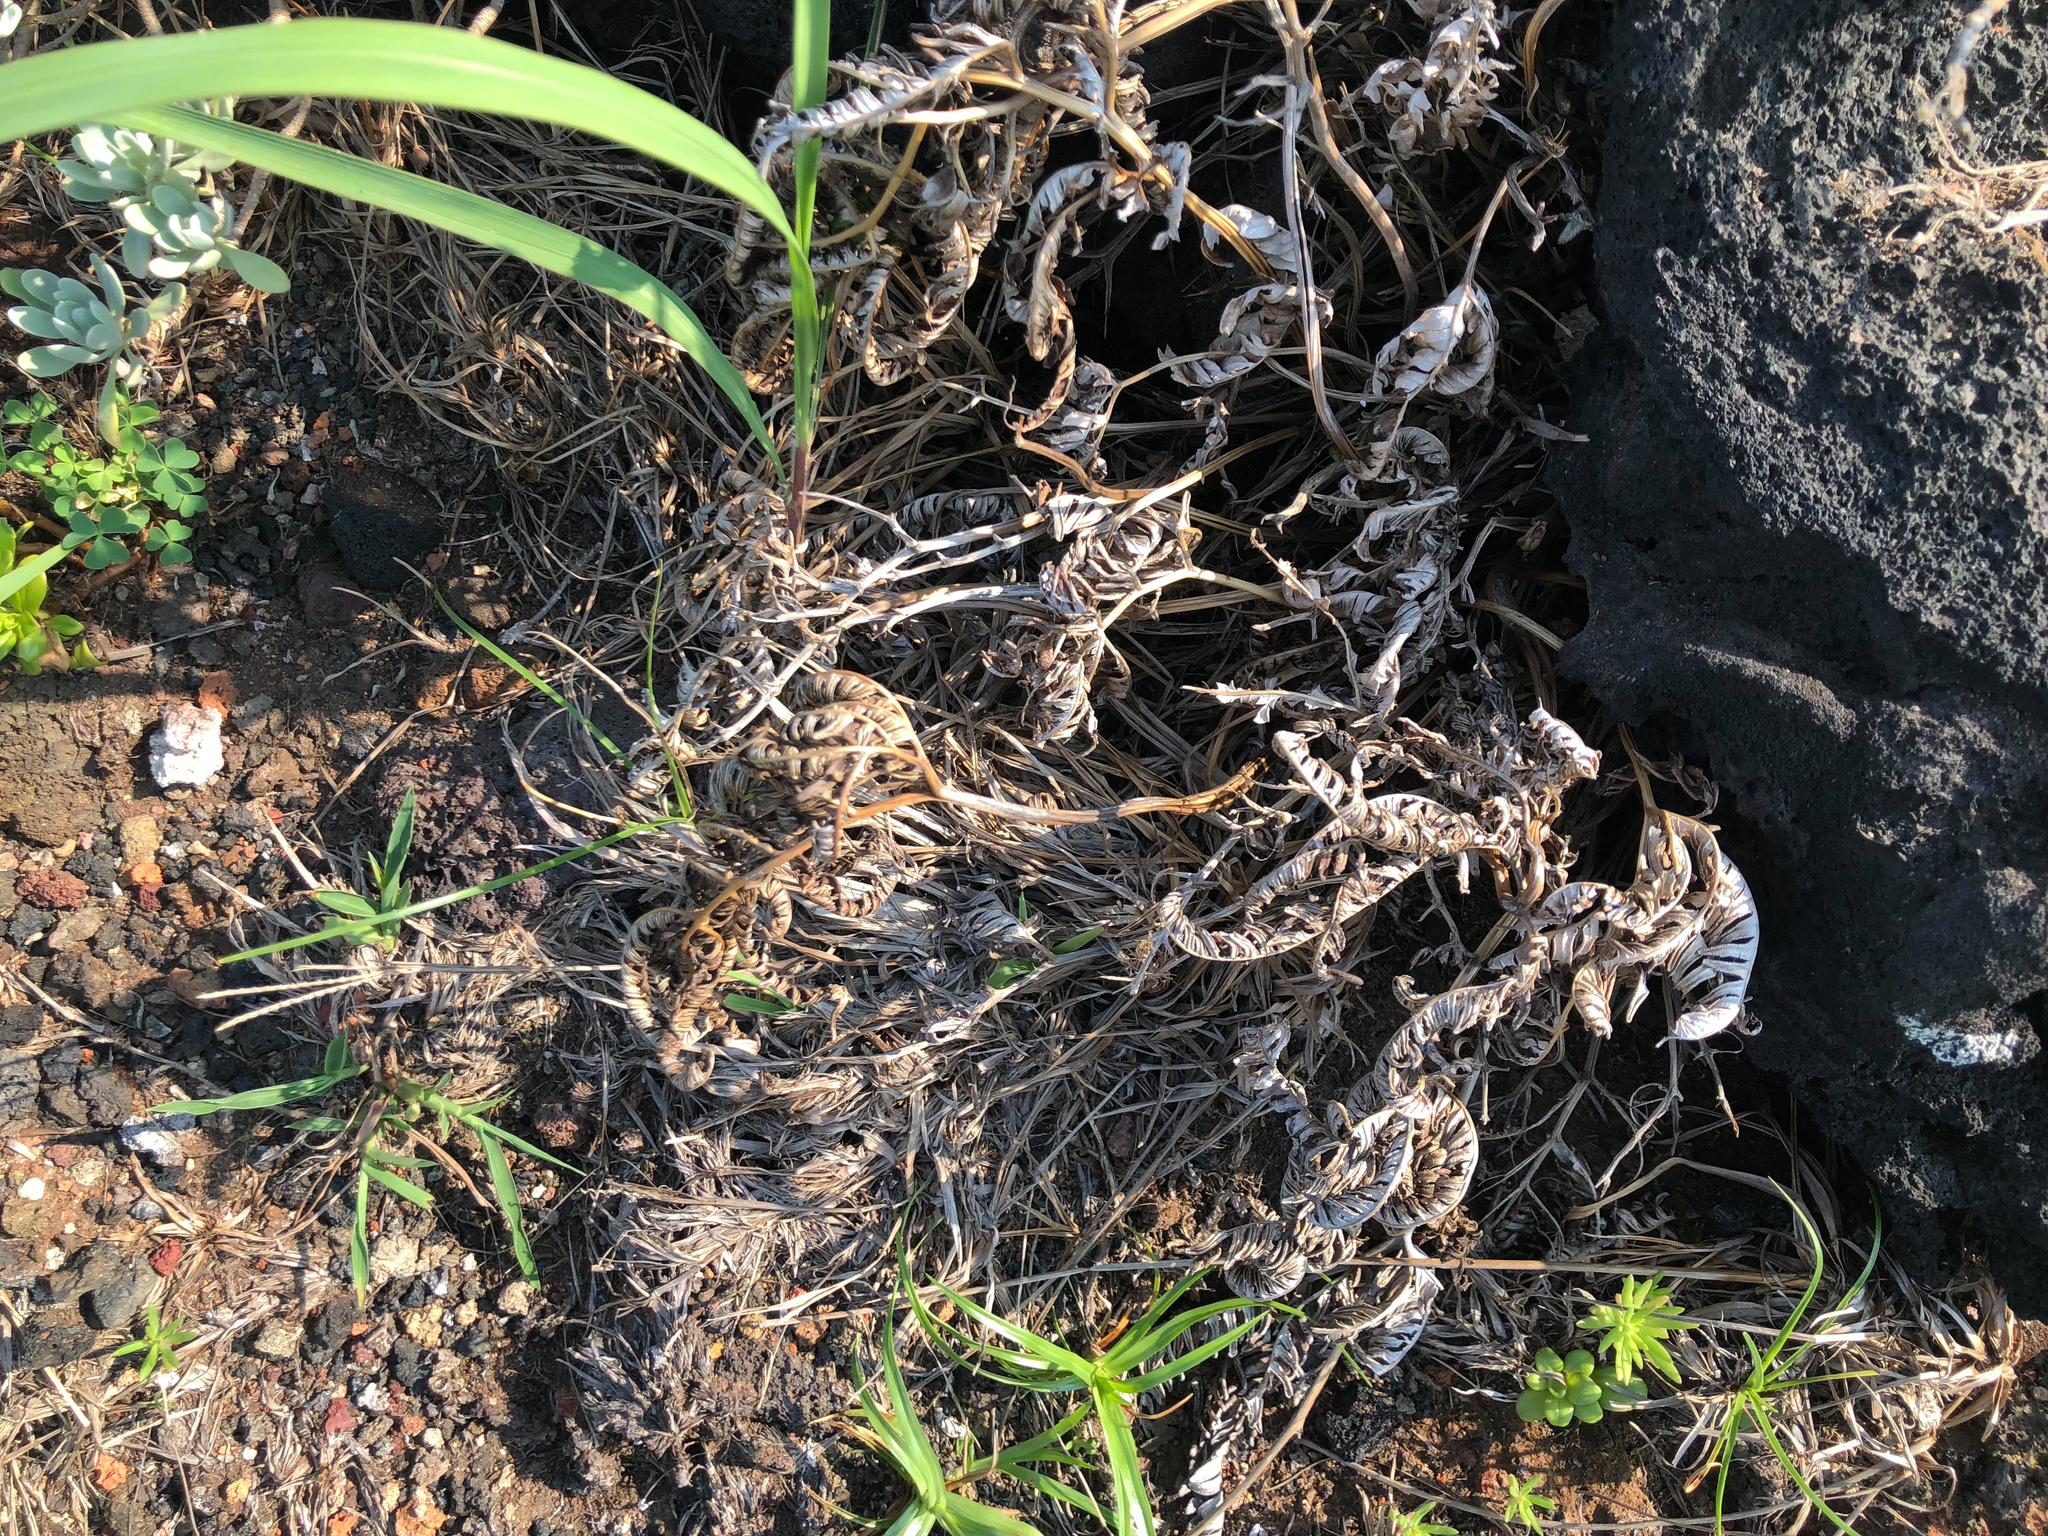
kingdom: Plantae
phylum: Tracheophyta
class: Polypodiopsida
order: Polypodiales
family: Pteridaceae
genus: Pteris
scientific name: Pteris fauriei
